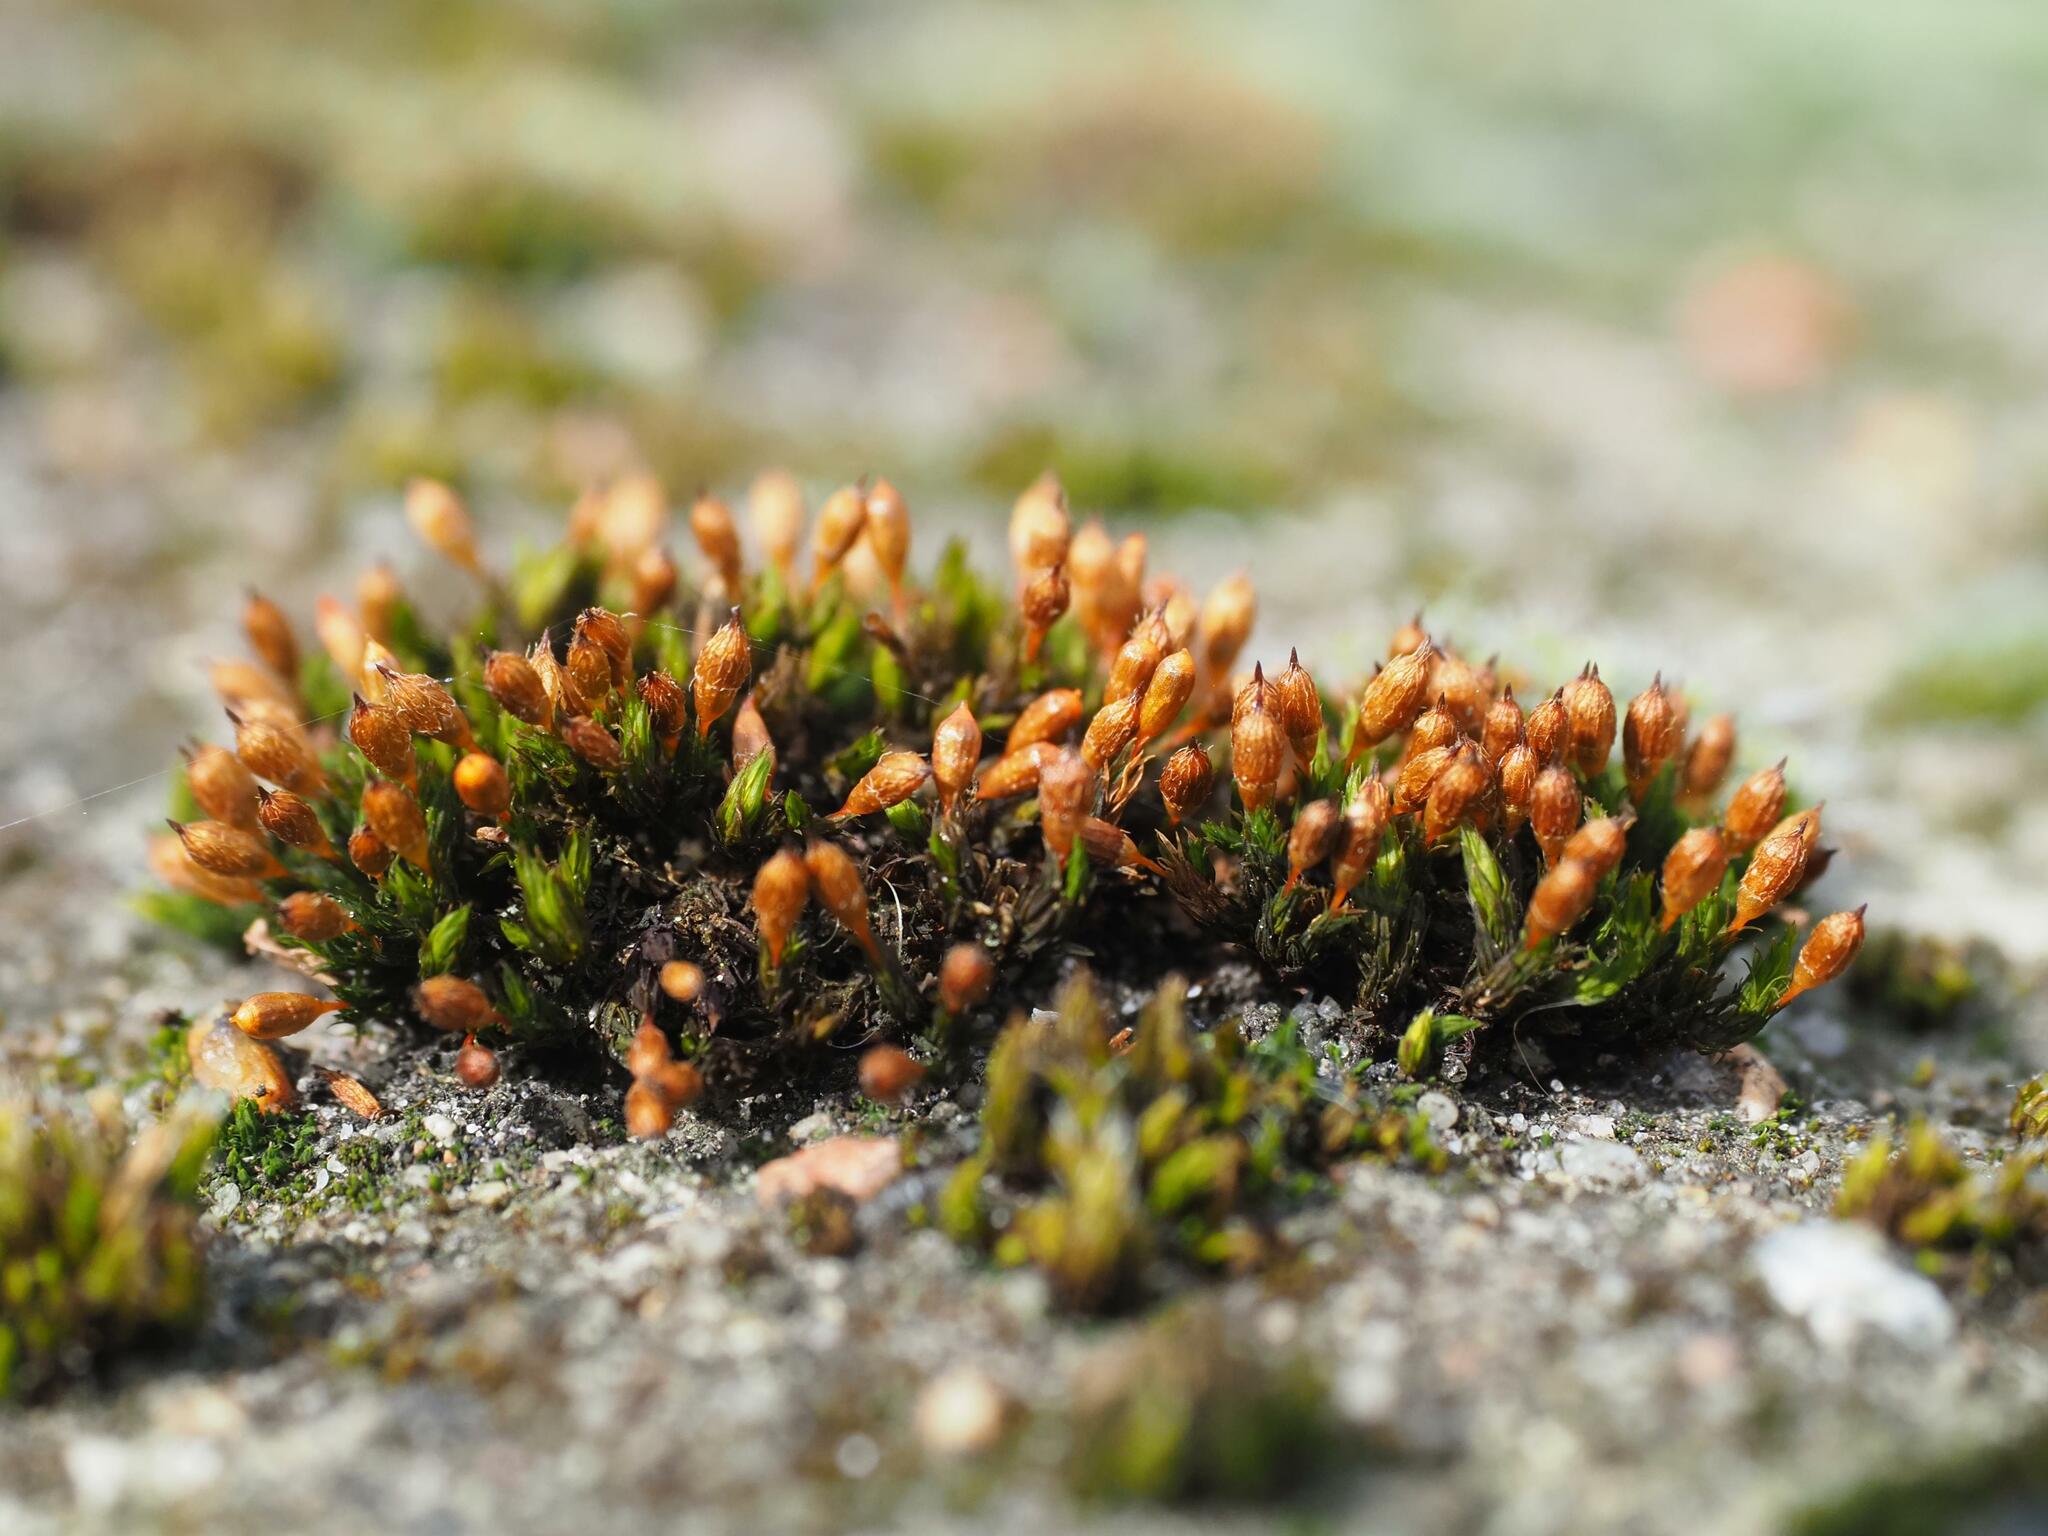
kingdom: Plantae
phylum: Bryophyta
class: Bryopsida
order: Orthotrichales
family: Orthotrichaceae
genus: Orthotrichum
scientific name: Orthotrichum anomalum
